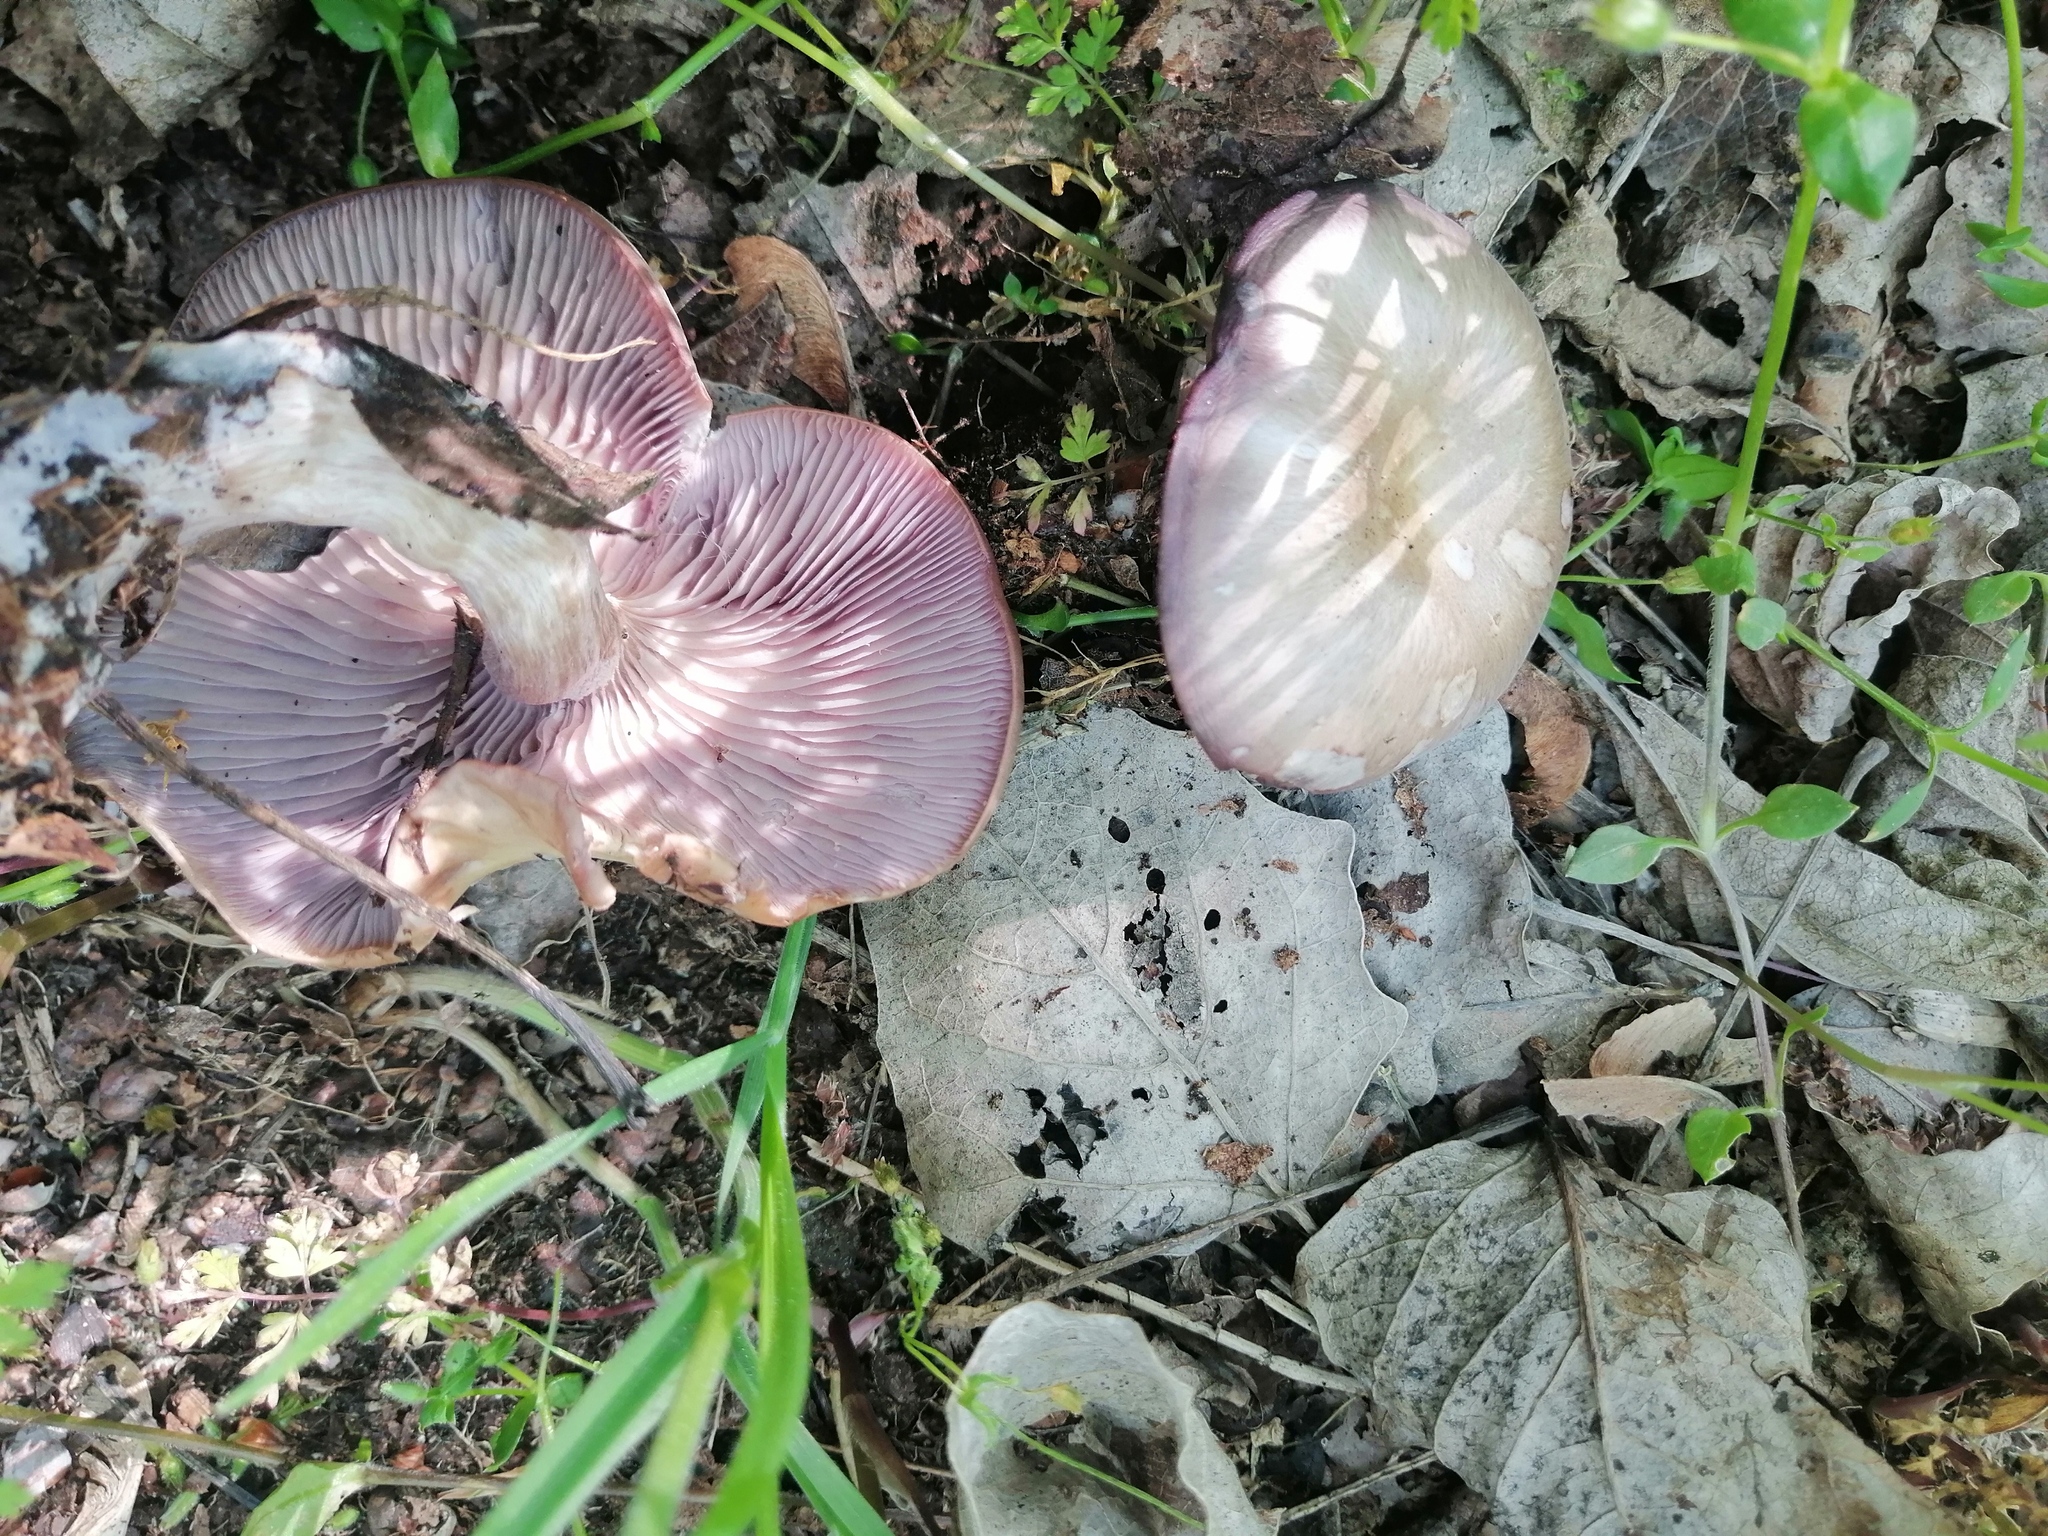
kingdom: Fungi
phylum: Basidiomycota
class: Agaricomycetes
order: Agaricales
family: Tricholomataceae
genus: Collybia
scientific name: Collybia
